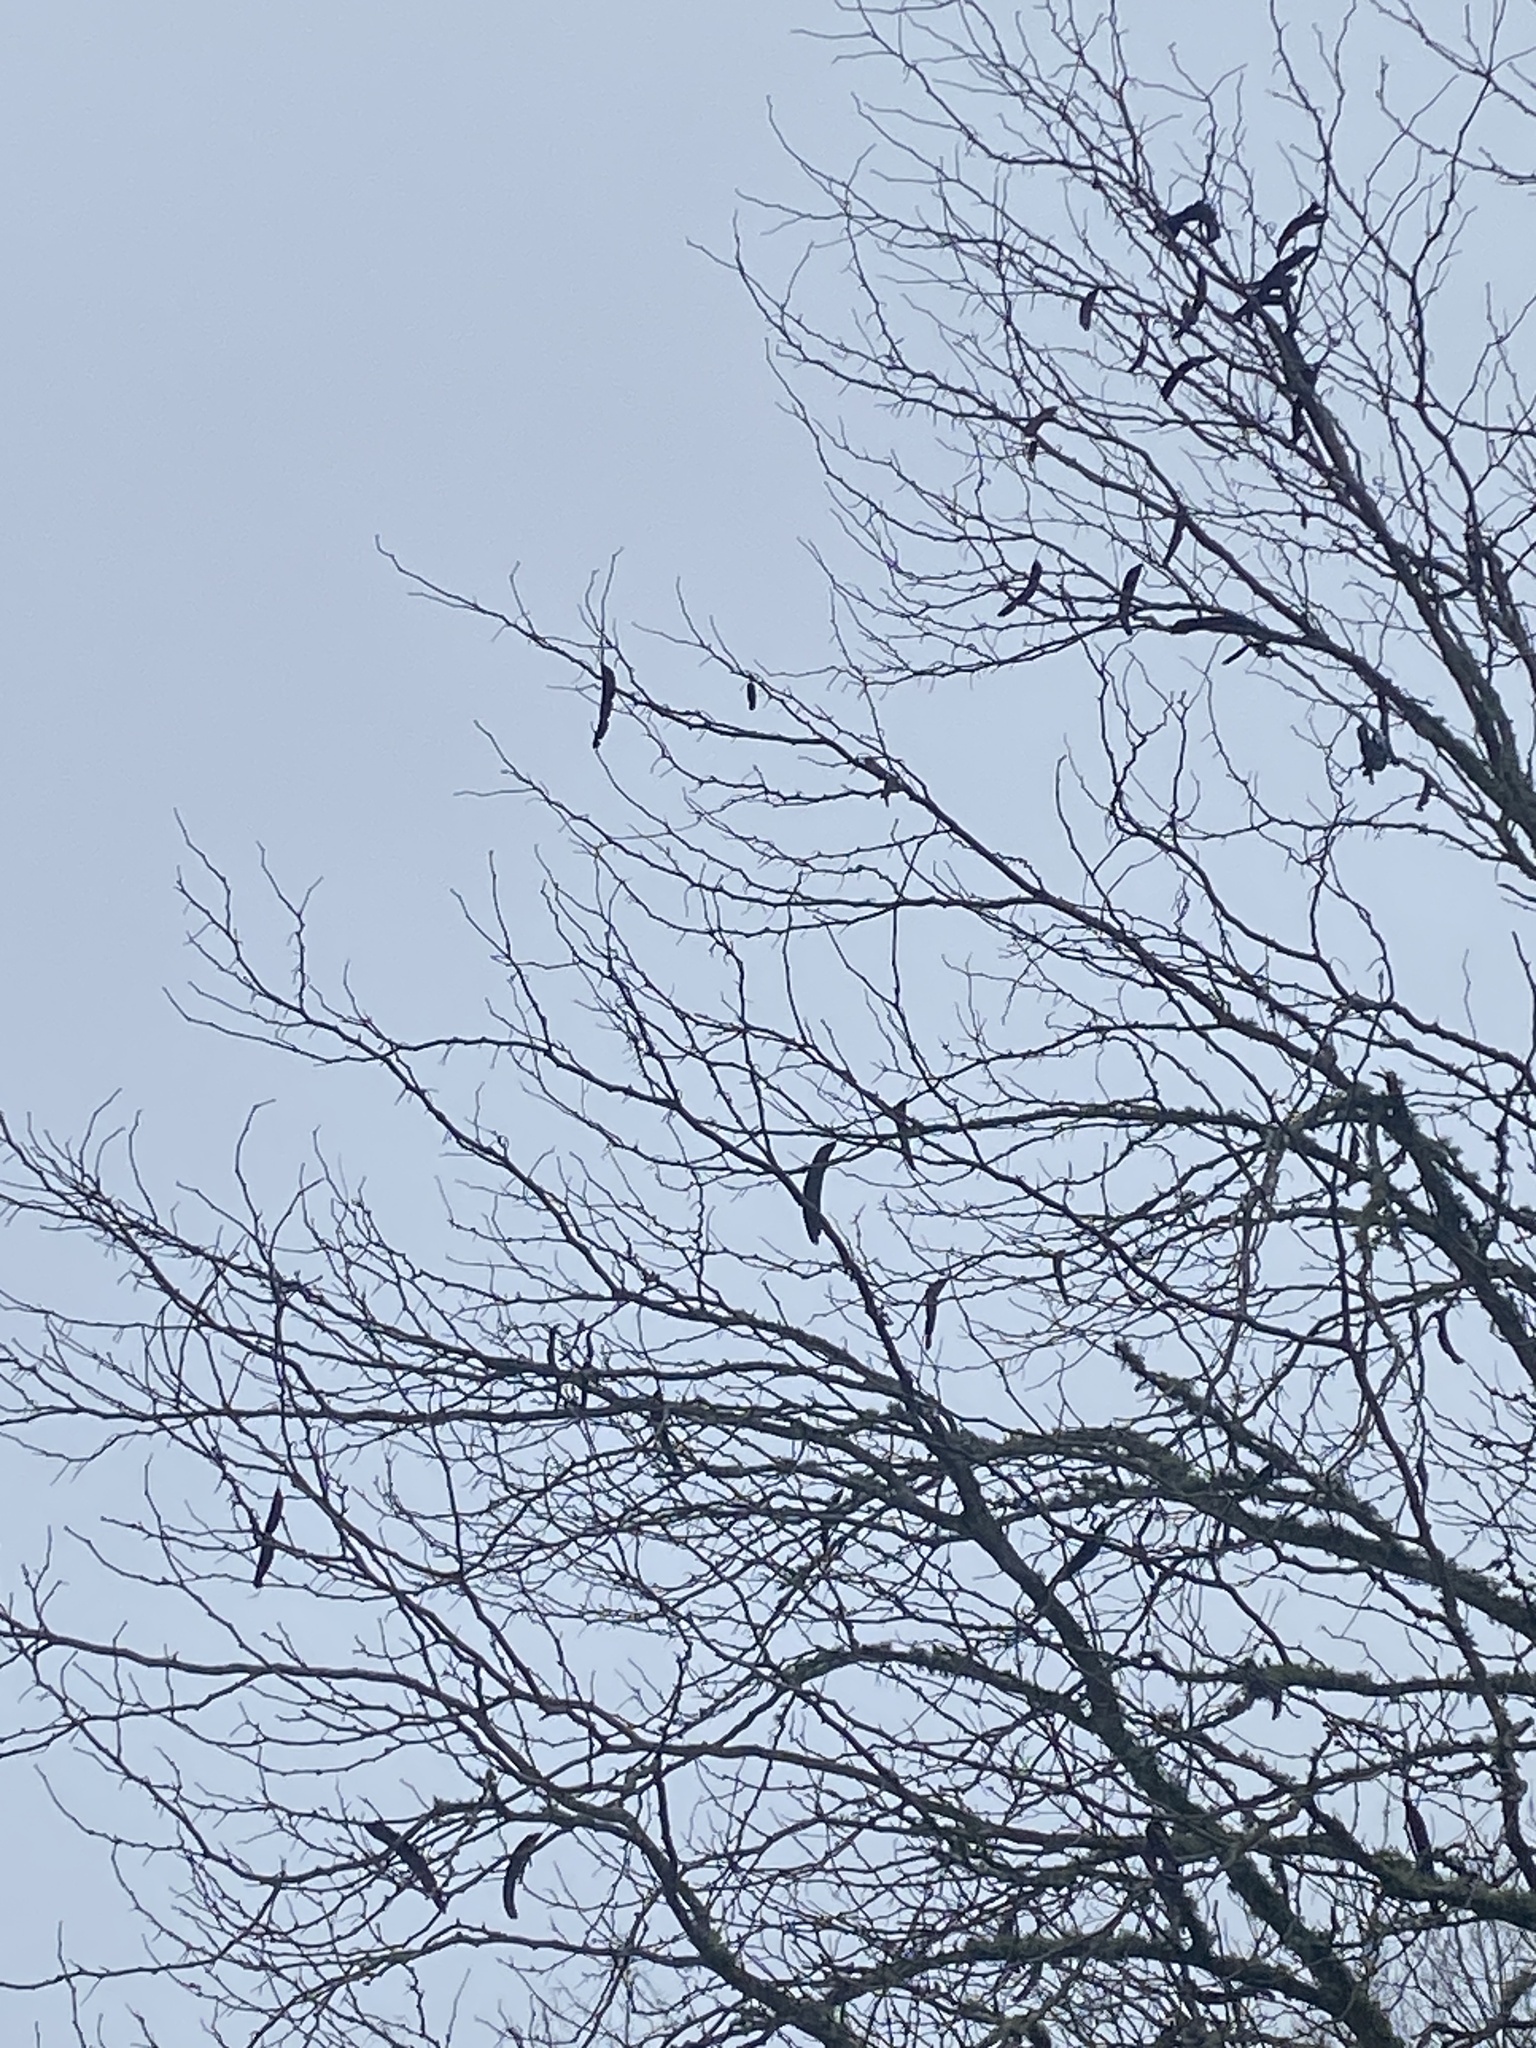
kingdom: Plantae
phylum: Tracheophyta
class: Magnoliopsida
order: Fabales
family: Fabaceae
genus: Gleditsia
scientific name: Gleditsia triacanthos
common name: Common honeylocust
